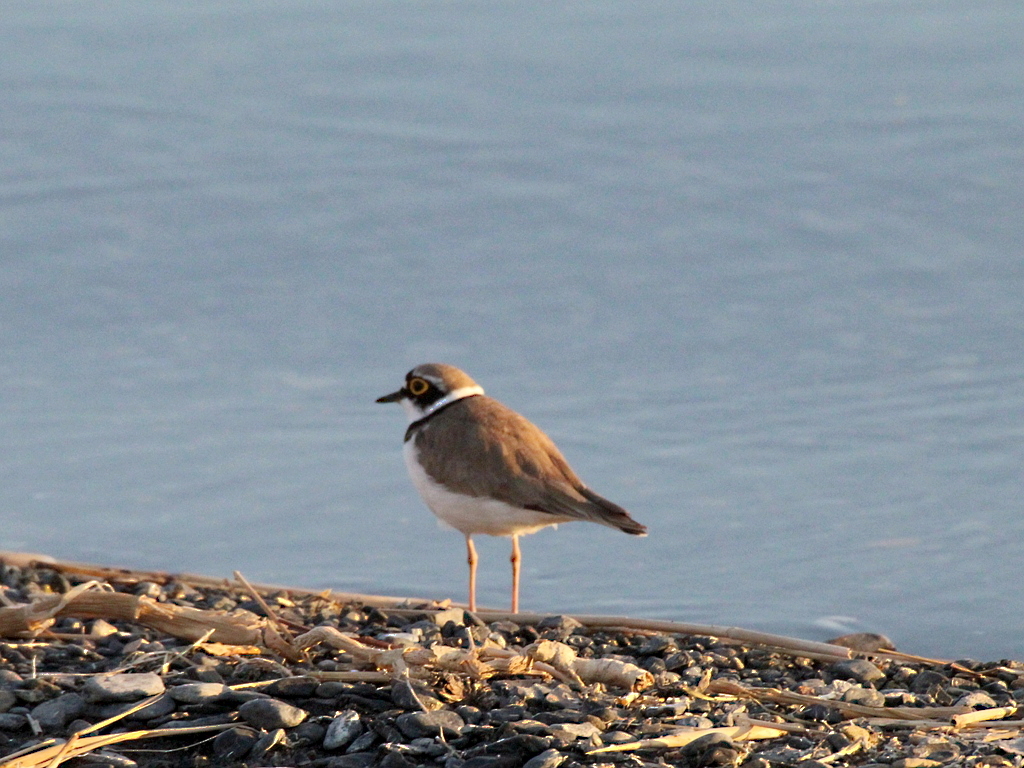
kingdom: Animalia
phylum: Chordata
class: Aves
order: Charadriiformes
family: Charadriidae
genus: Charadrius
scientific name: Charadrius dubius
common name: Little ringed plover
